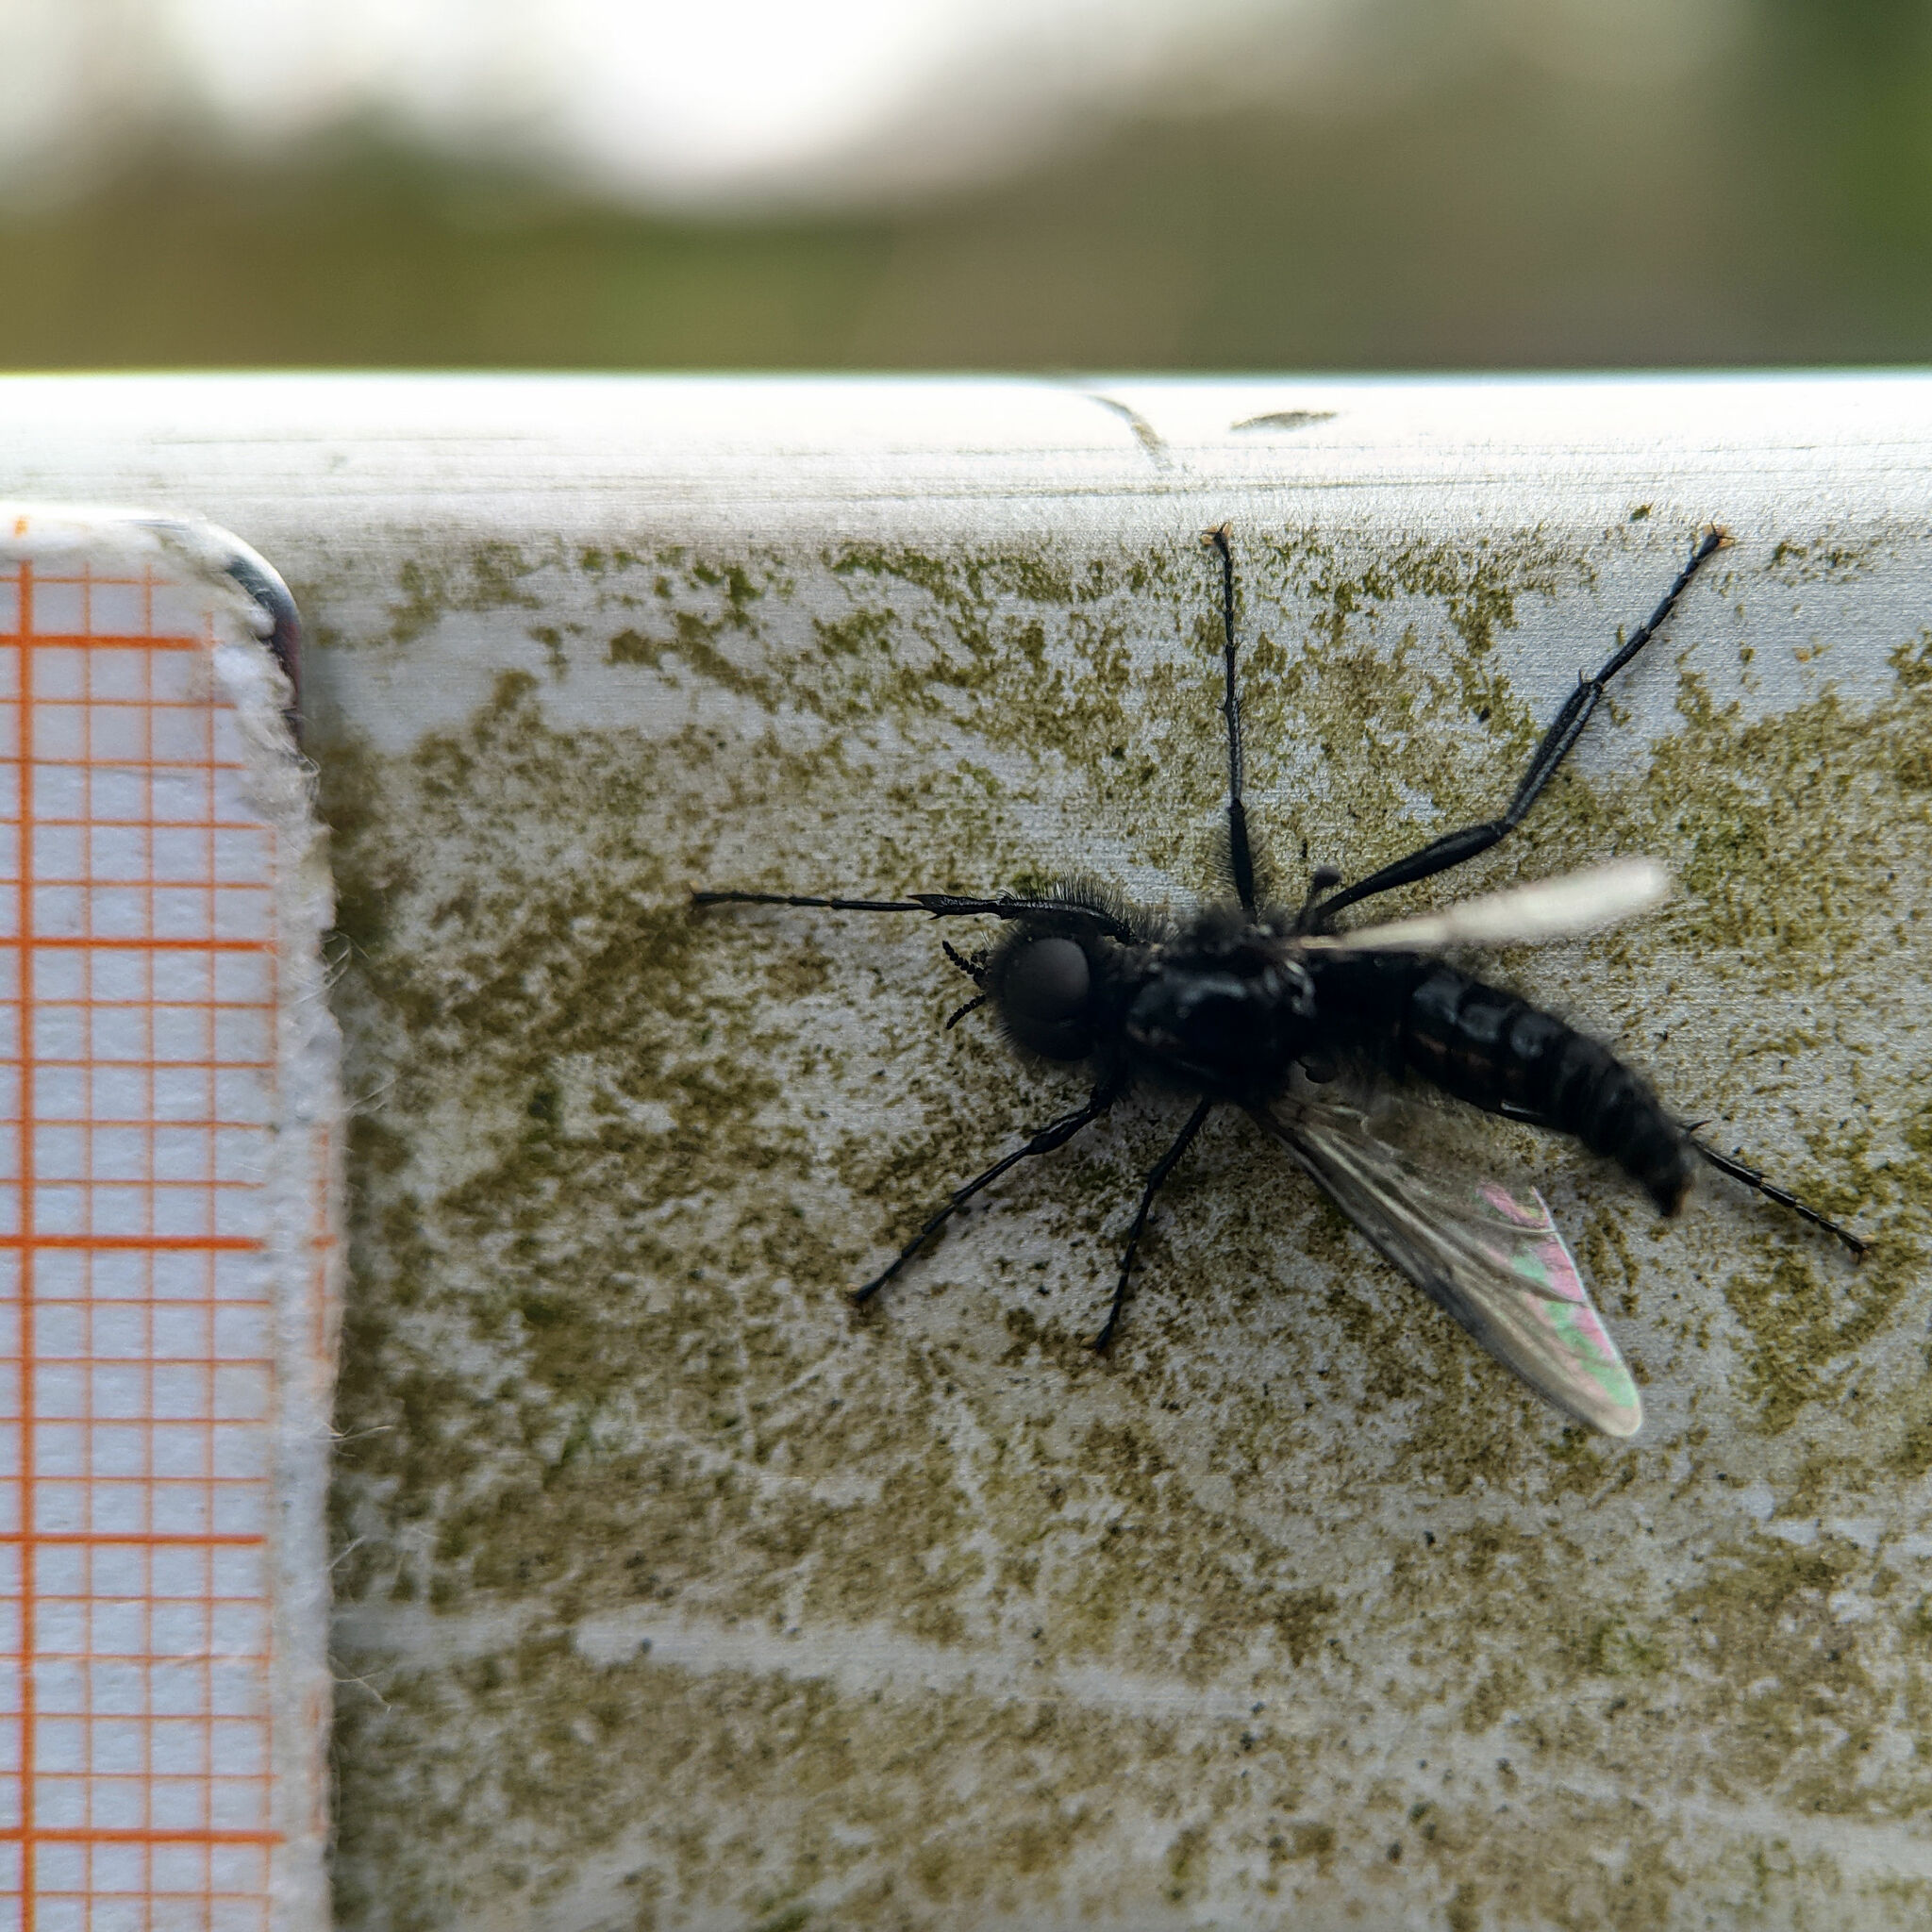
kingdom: Animalia
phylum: Arthropoda
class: Insecta
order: Diptera
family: Bibionidae
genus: Bibio
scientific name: Bibio marci
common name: St marks fly
